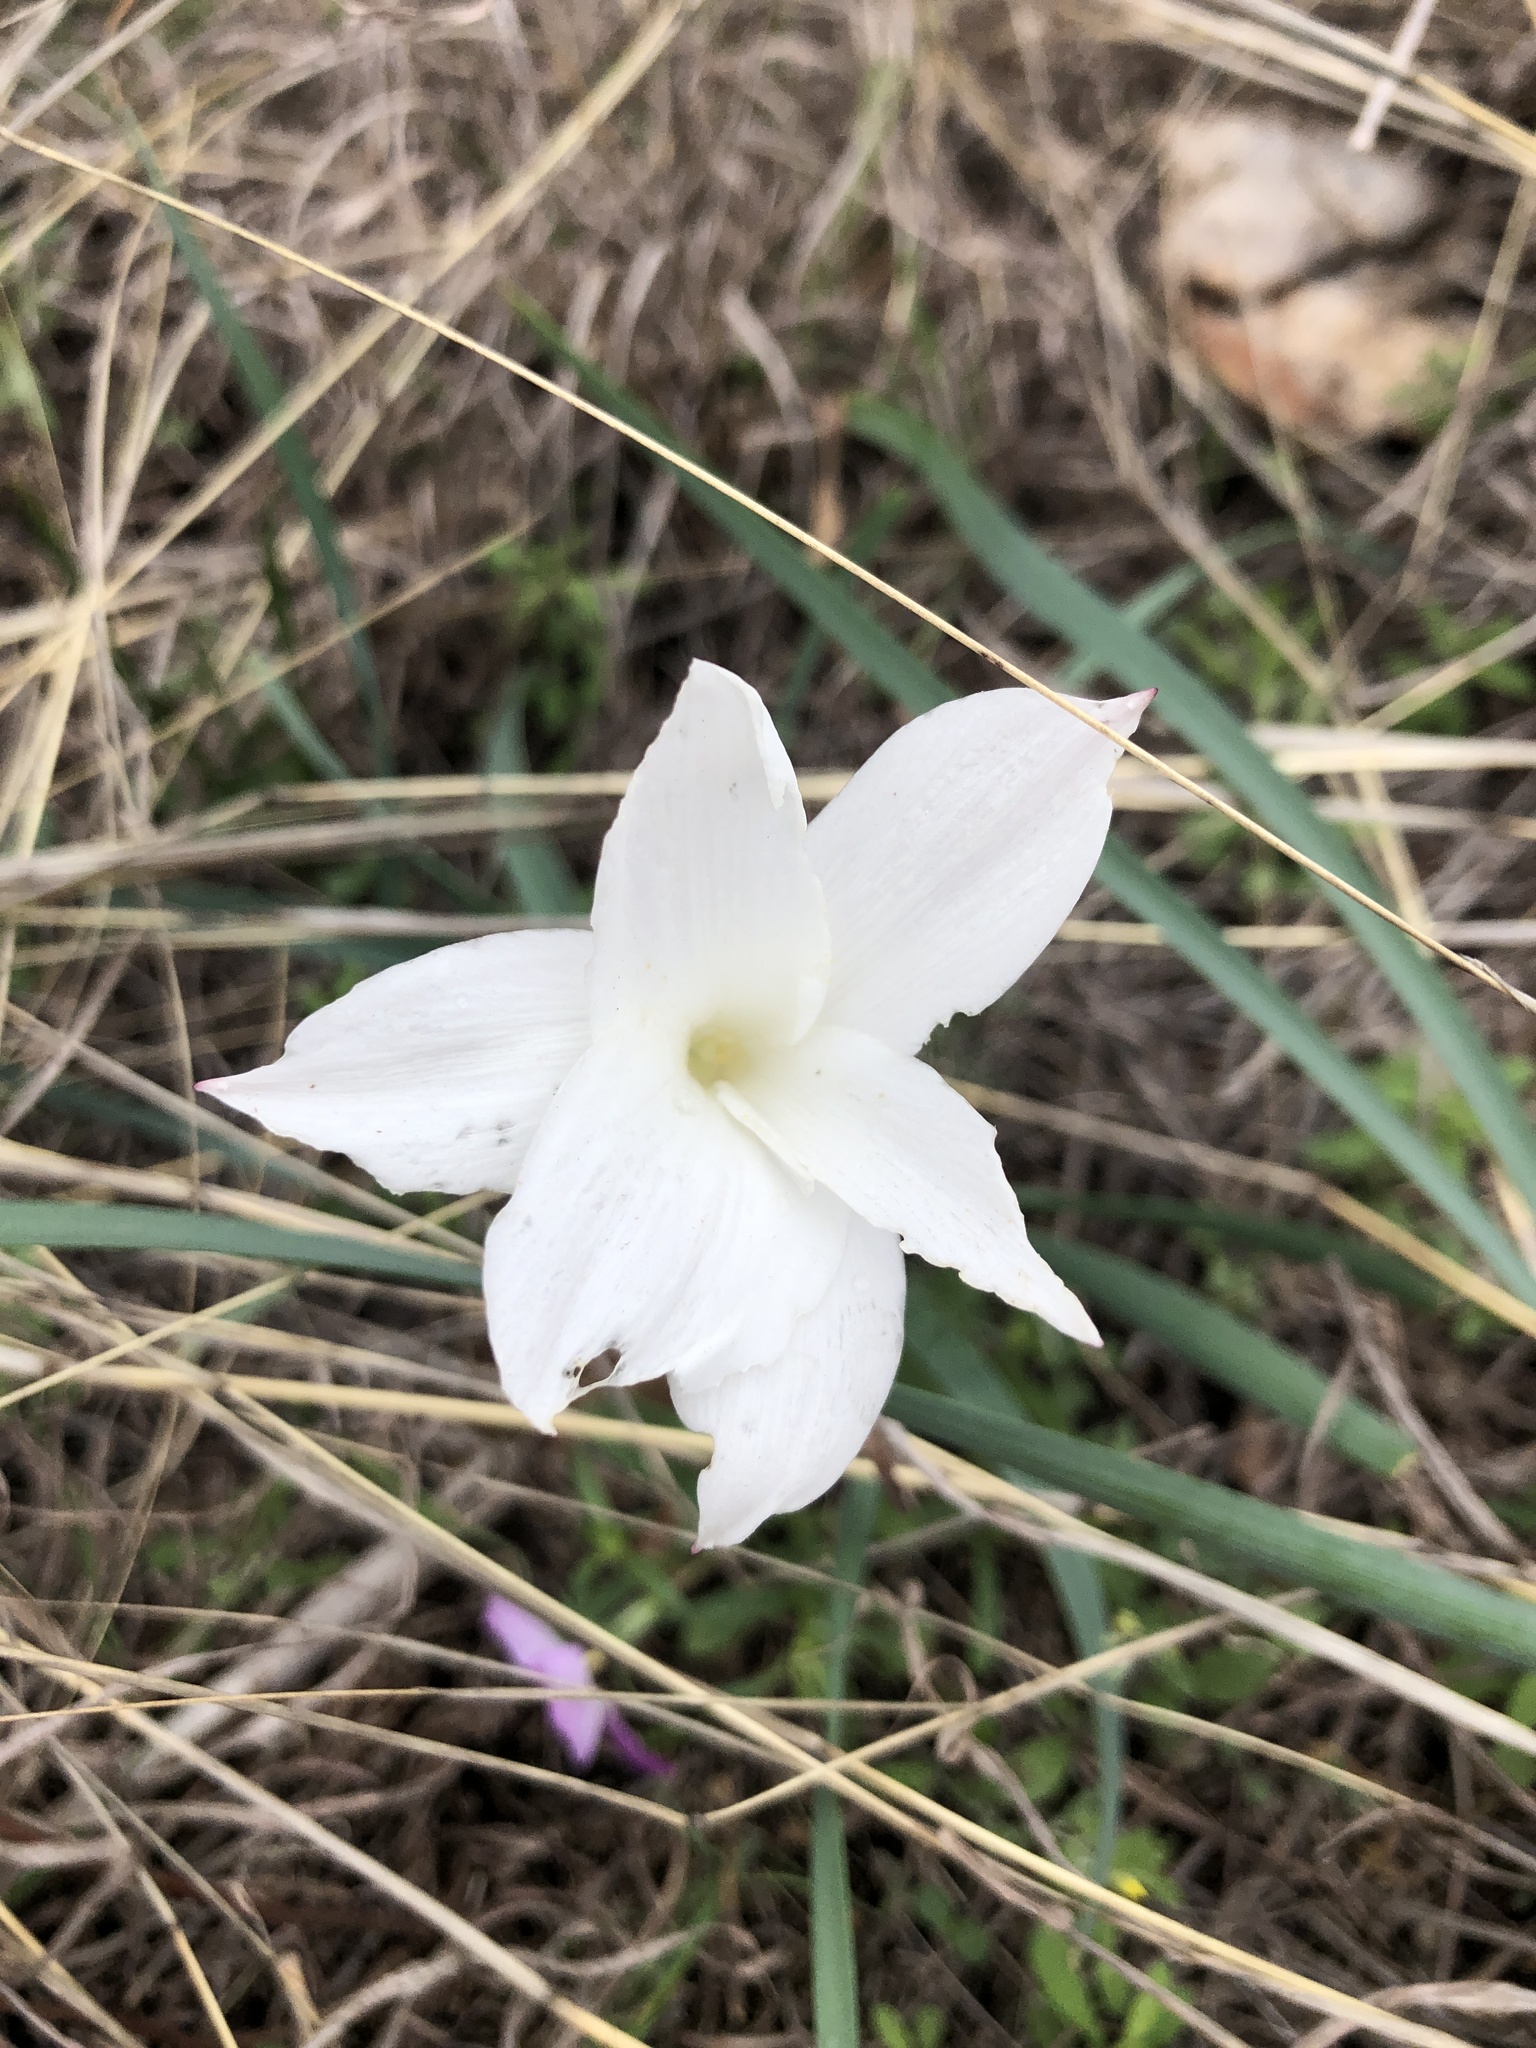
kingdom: Plantae
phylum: Tracheophyta
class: Liliopsida
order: Asparagales
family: Amaryllidaceae
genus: Zephyranthes
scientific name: Zephyranthes drummondii
